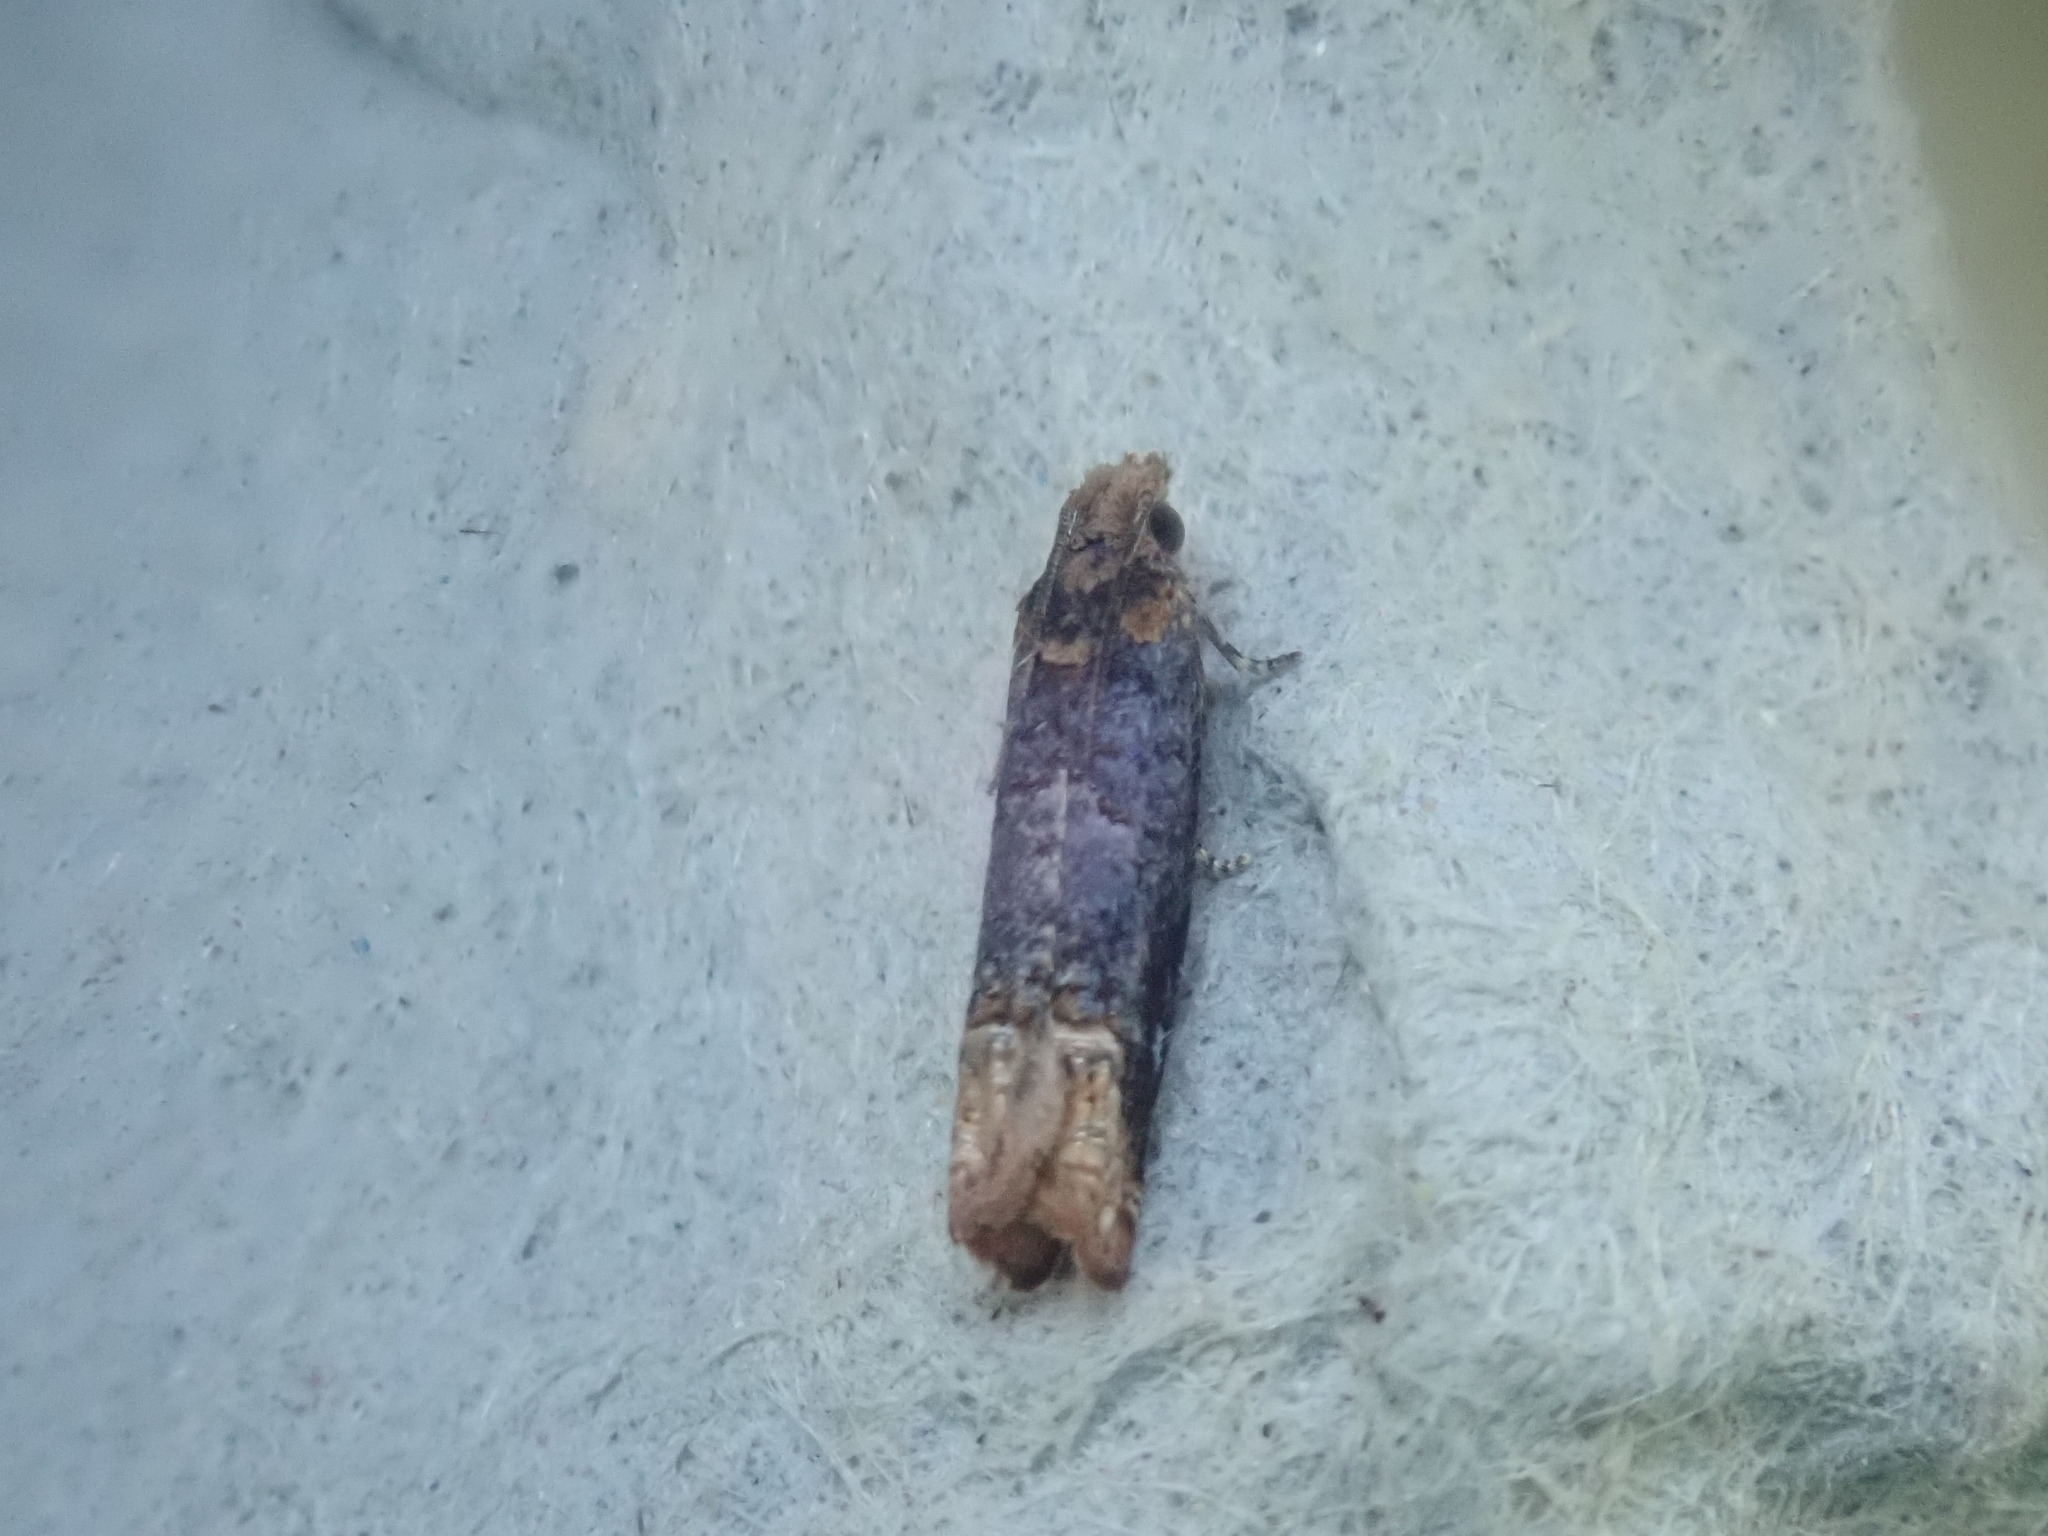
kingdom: Animalia
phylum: Arthropoda
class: Insecta
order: Lepidoptera
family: Tortricidae
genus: Eucosma
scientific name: Eucosma ochroterminana
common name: Buff-tipped eucosma moth
